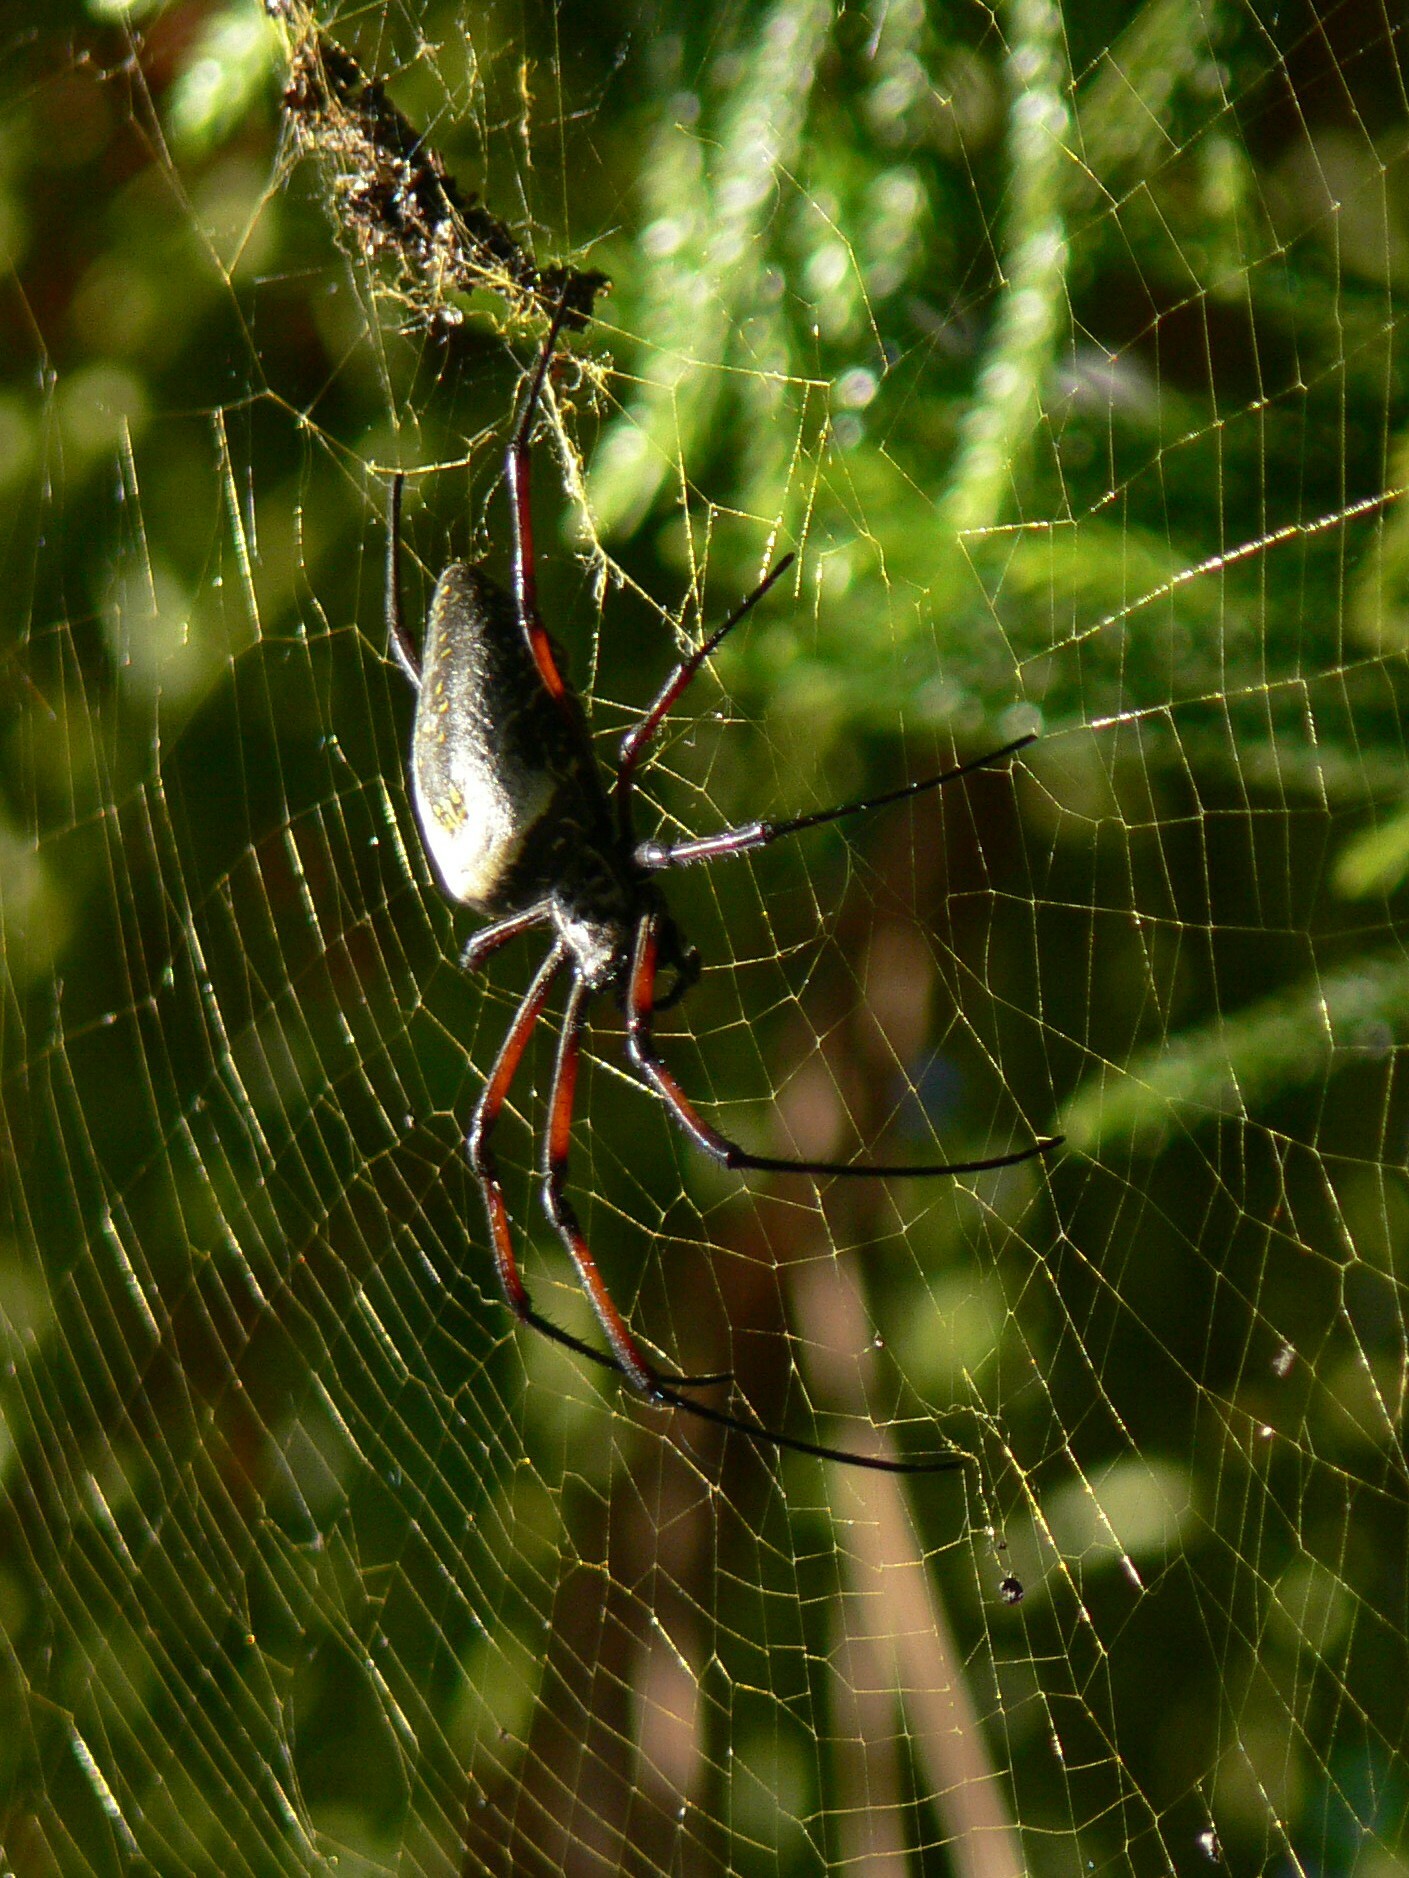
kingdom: Animalia
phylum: Arthropoda
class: Arachnida
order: Araneae
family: Araneidae
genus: Trichonephila
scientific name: Trichonephila inaurata
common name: Red-legged golden orb weaver
